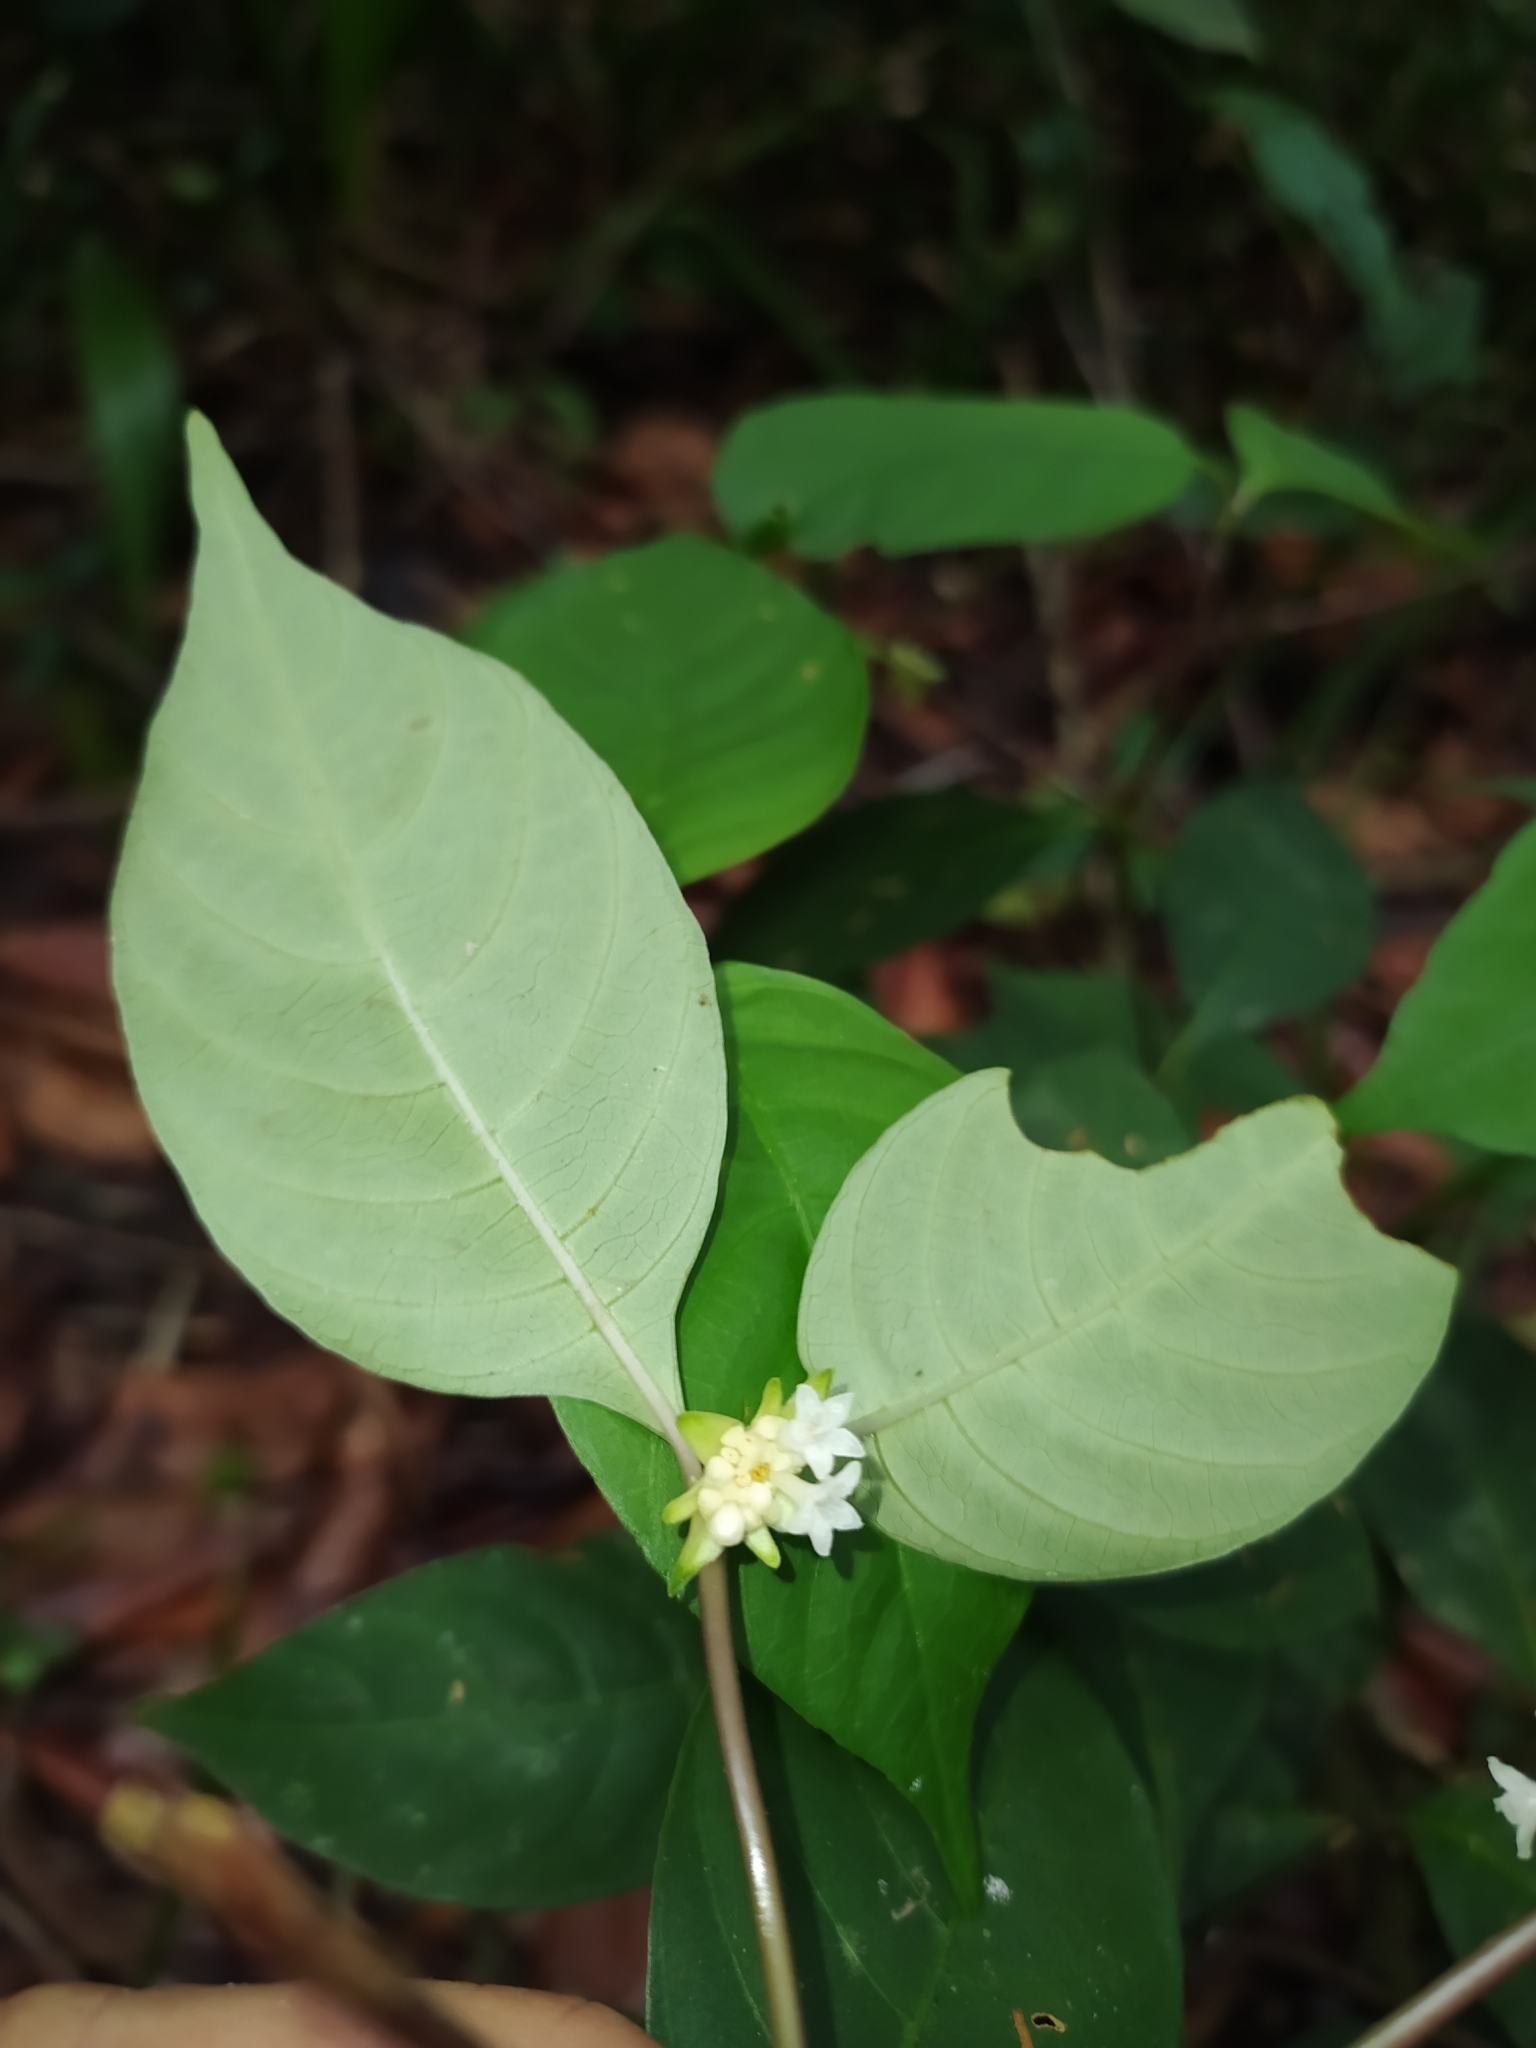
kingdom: Plantae
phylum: Tracheophyta
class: Magnoliopsida
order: Gentianales
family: Rubiaceae
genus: Palicourea
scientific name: Palicourea hoffmannseggiana
